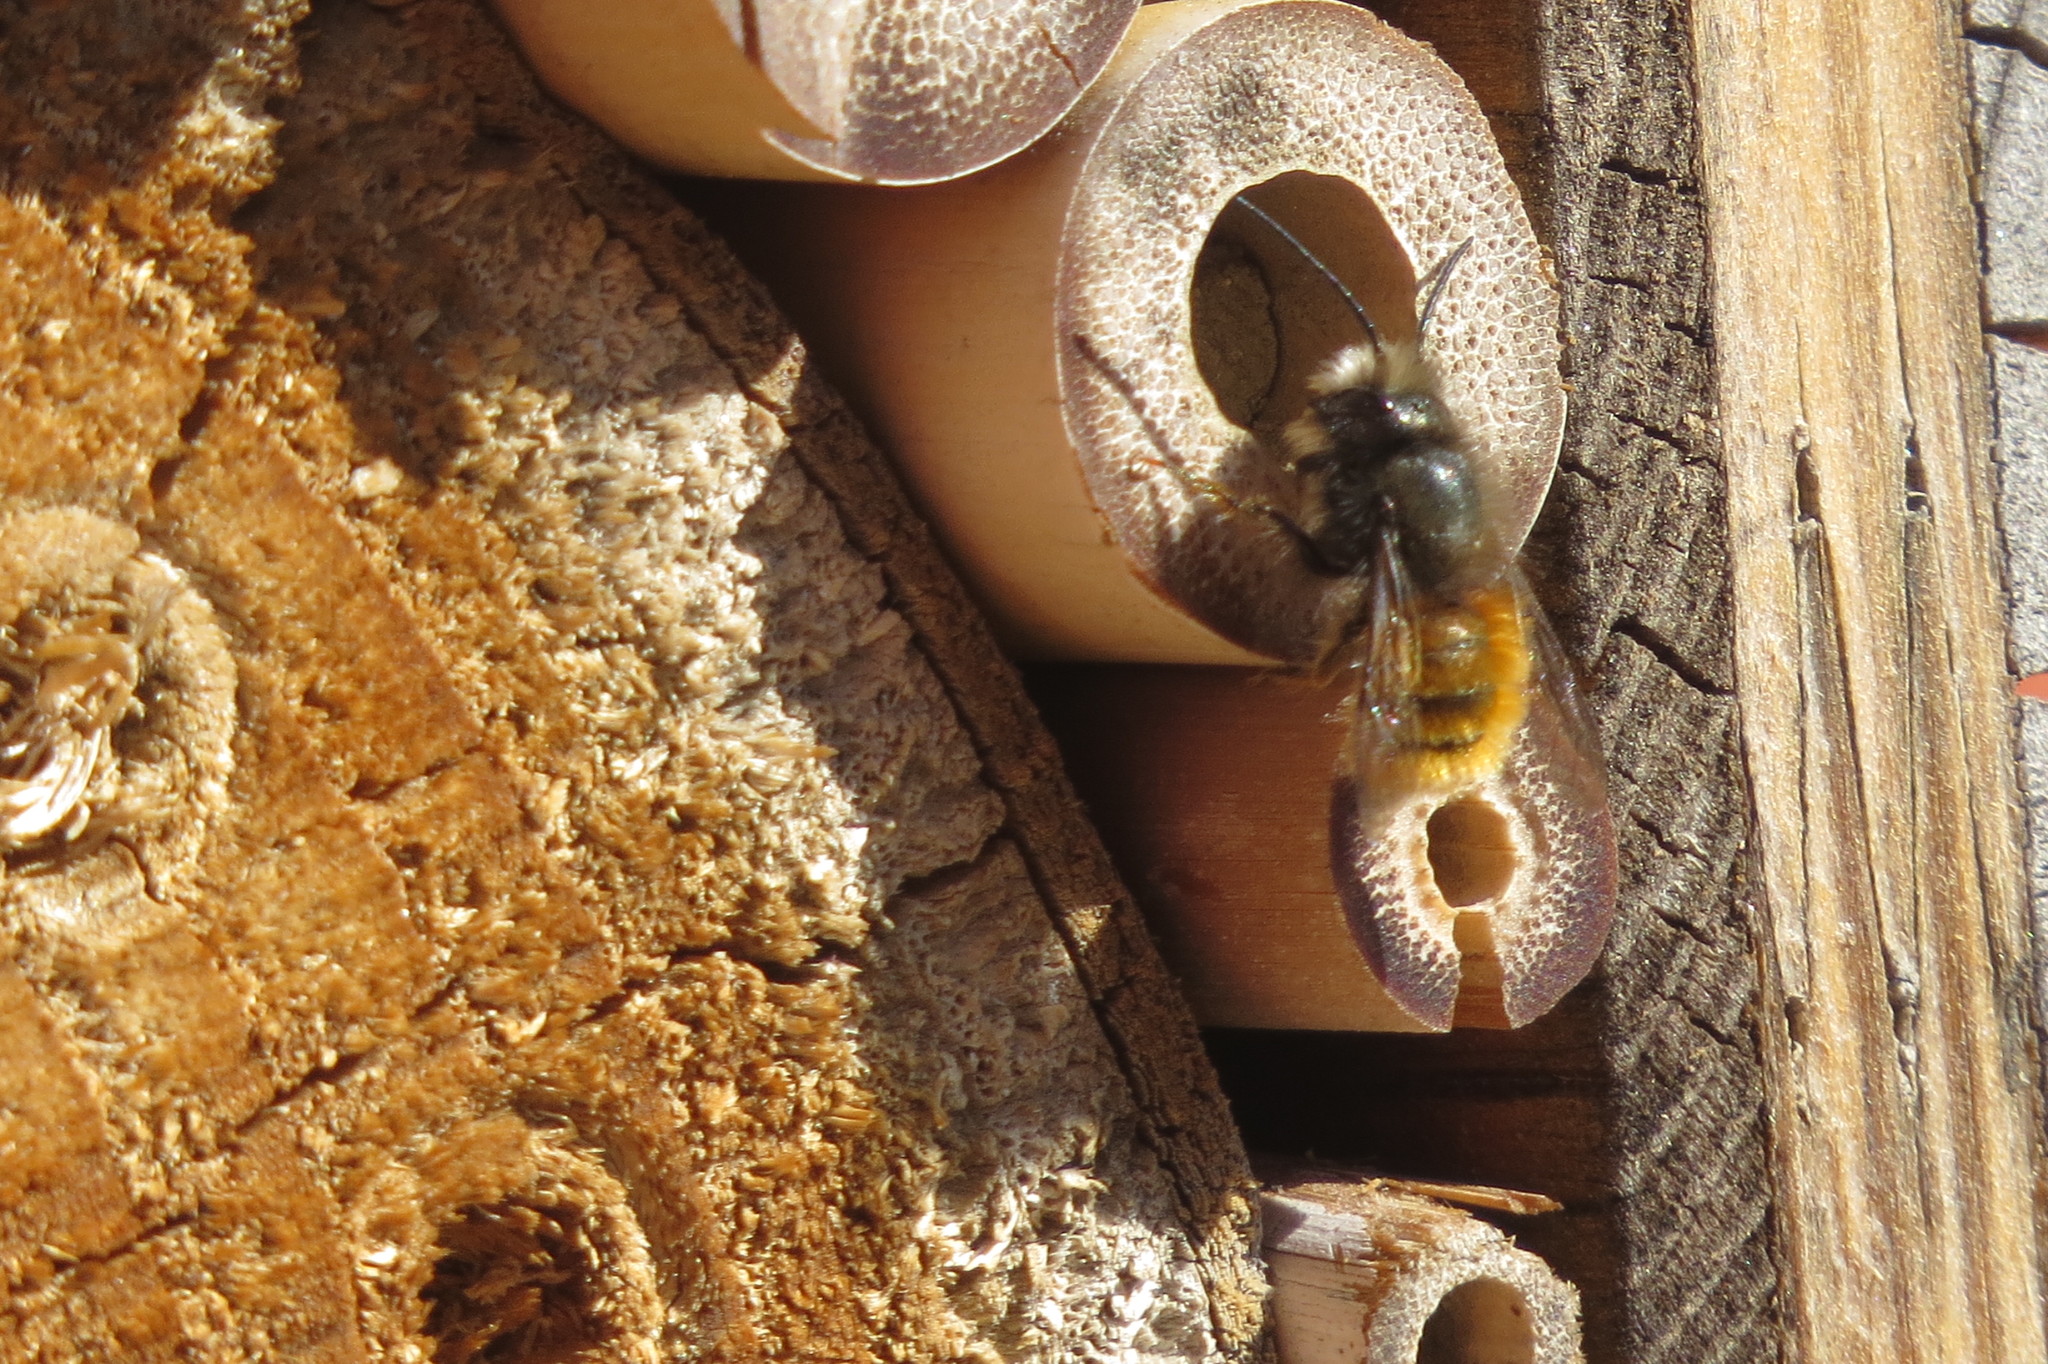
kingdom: Animalia
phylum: Arthropoda
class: Insecta
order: Hymenoptera
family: Megachilidae
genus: Osmia
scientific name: Osmia cornuta
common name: Mason bee
